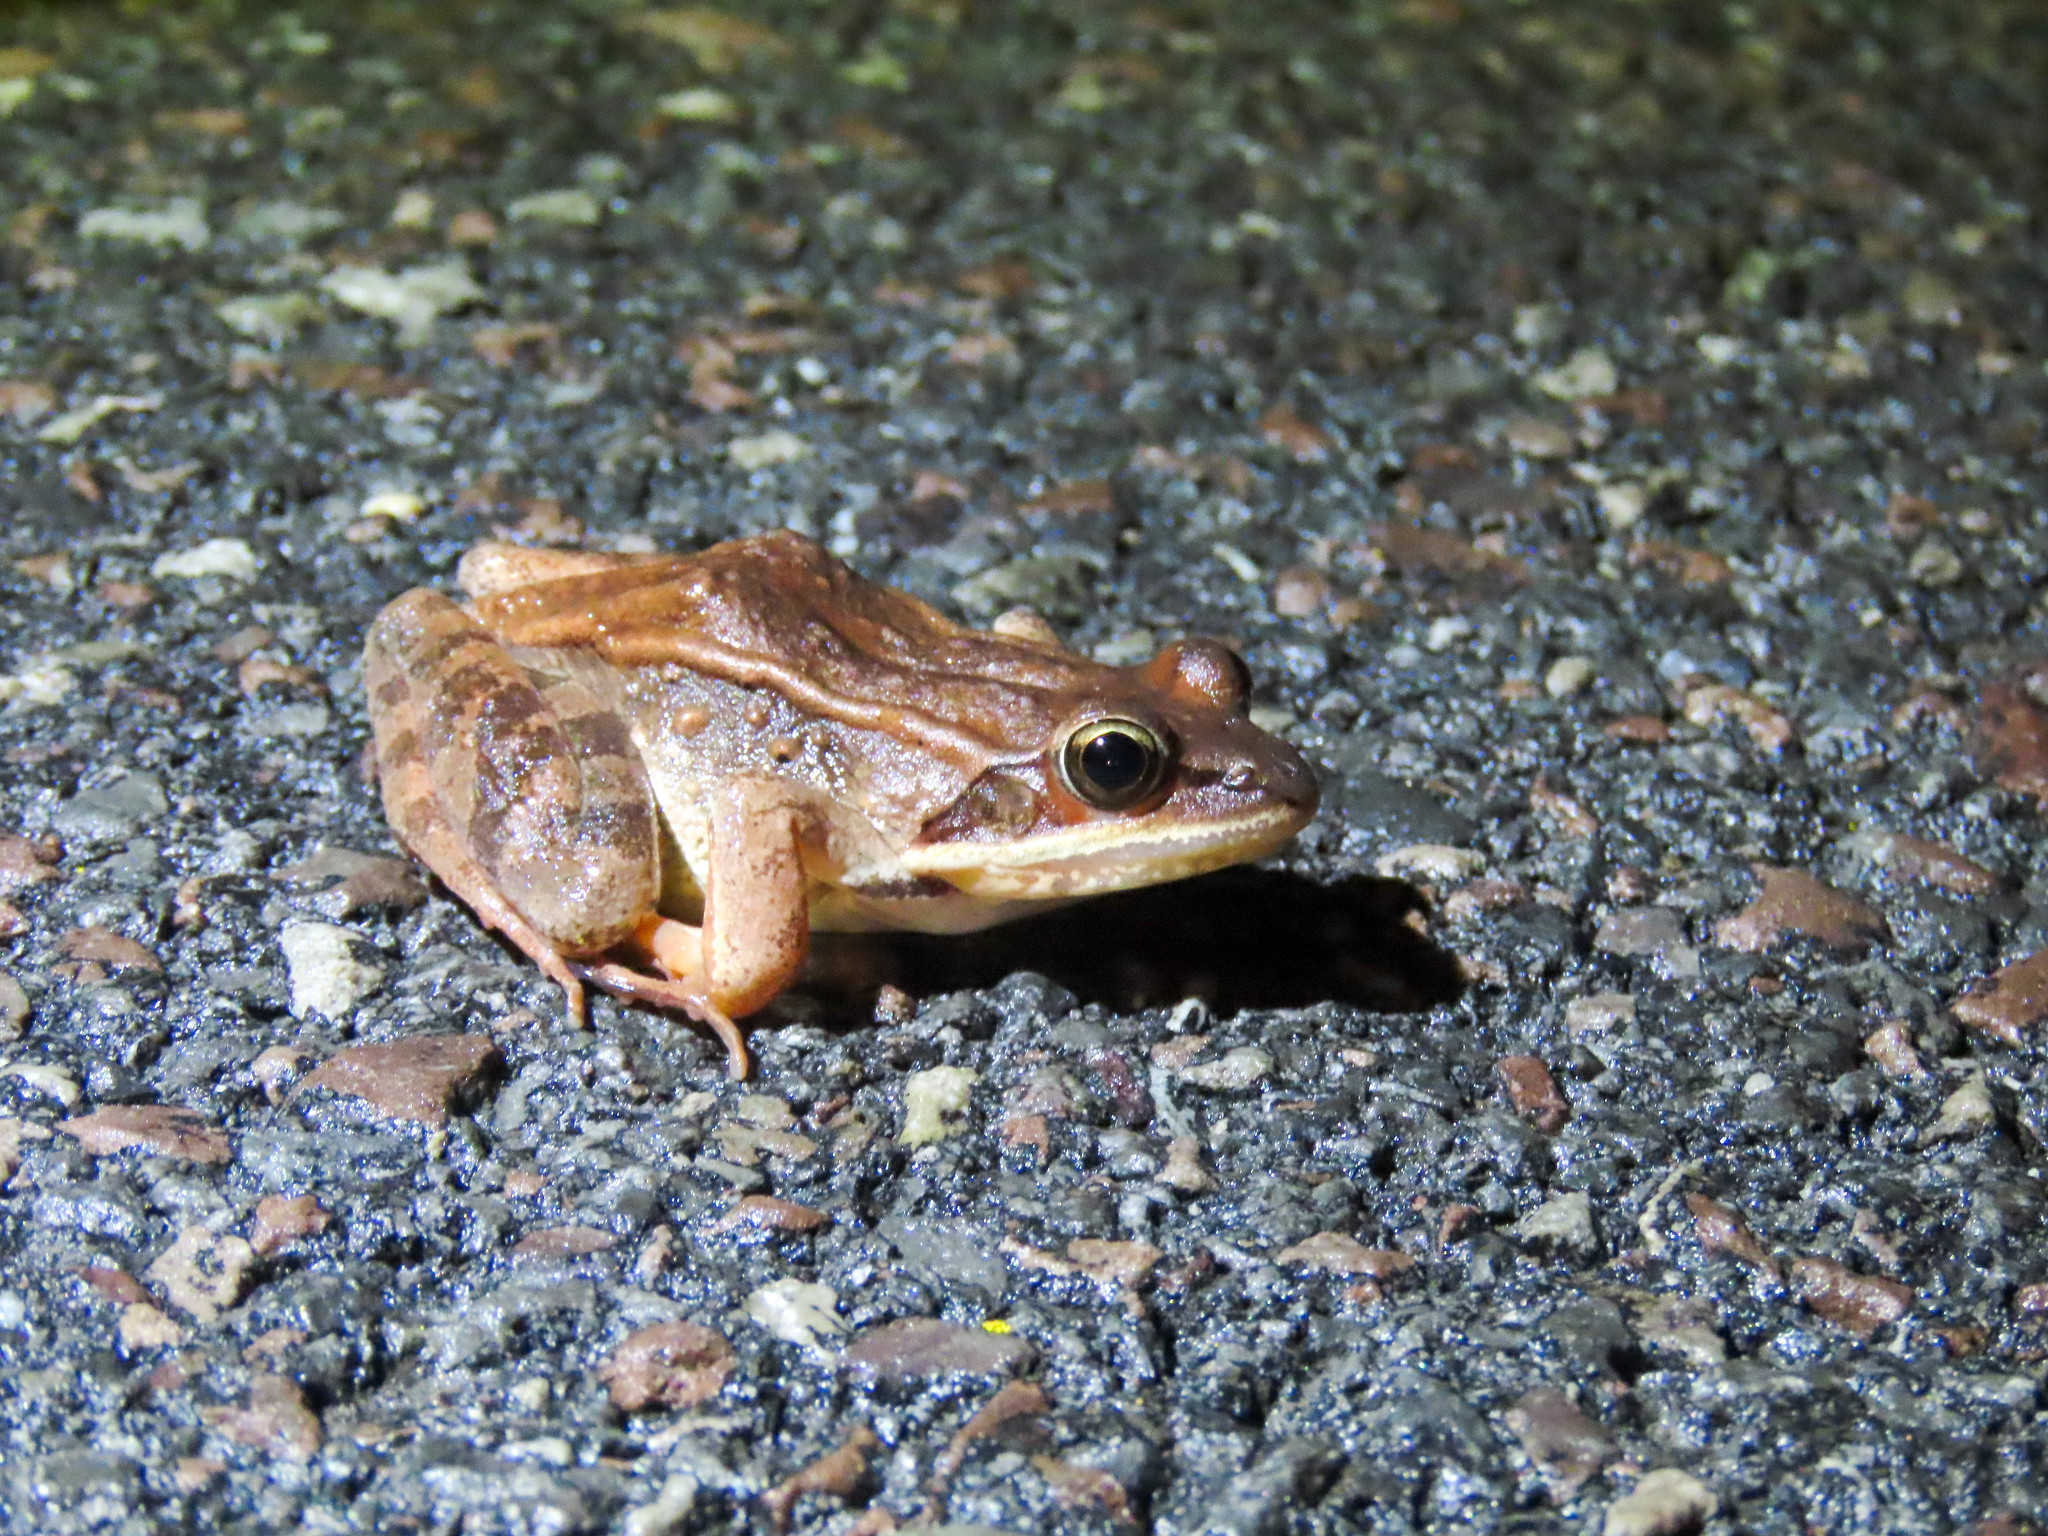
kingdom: Animalia
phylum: Chordata
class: Amphibia
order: Anura
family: Ranidae
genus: Lithobates
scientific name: Lithobates sylvaticus
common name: Wood frog
